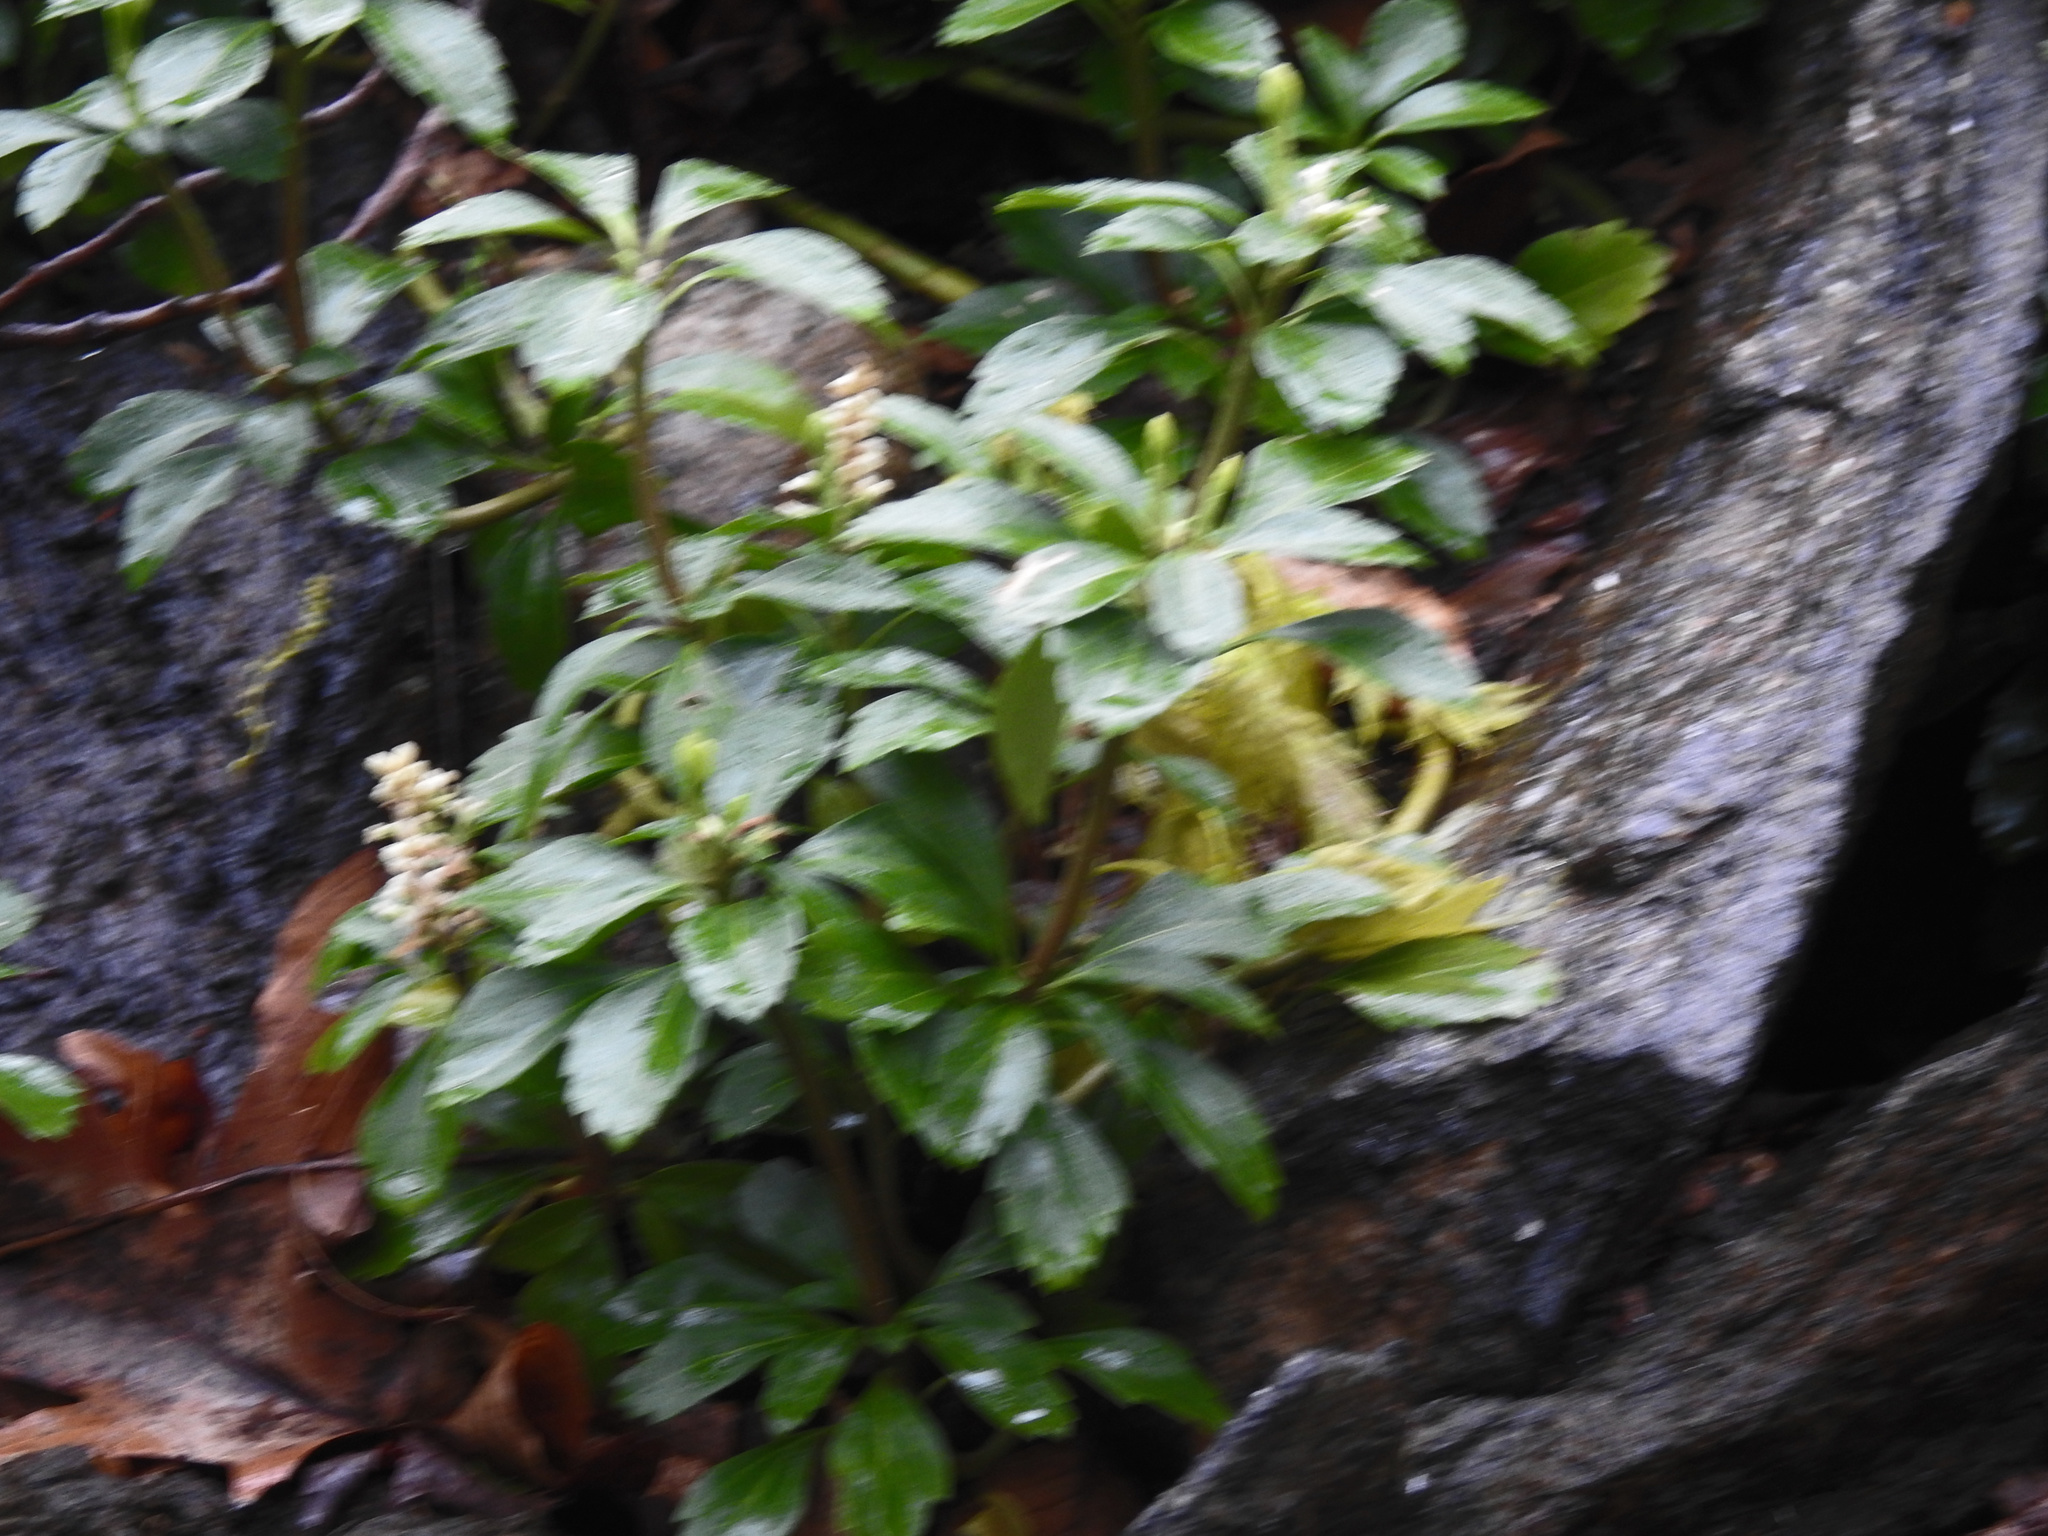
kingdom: Plantae
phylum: Tracheophyta
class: Magnoliopsida
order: Buxales
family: Buxaceae
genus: Pachysandra
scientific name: Pachysandra terminalis
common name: Japanese pachysandra
